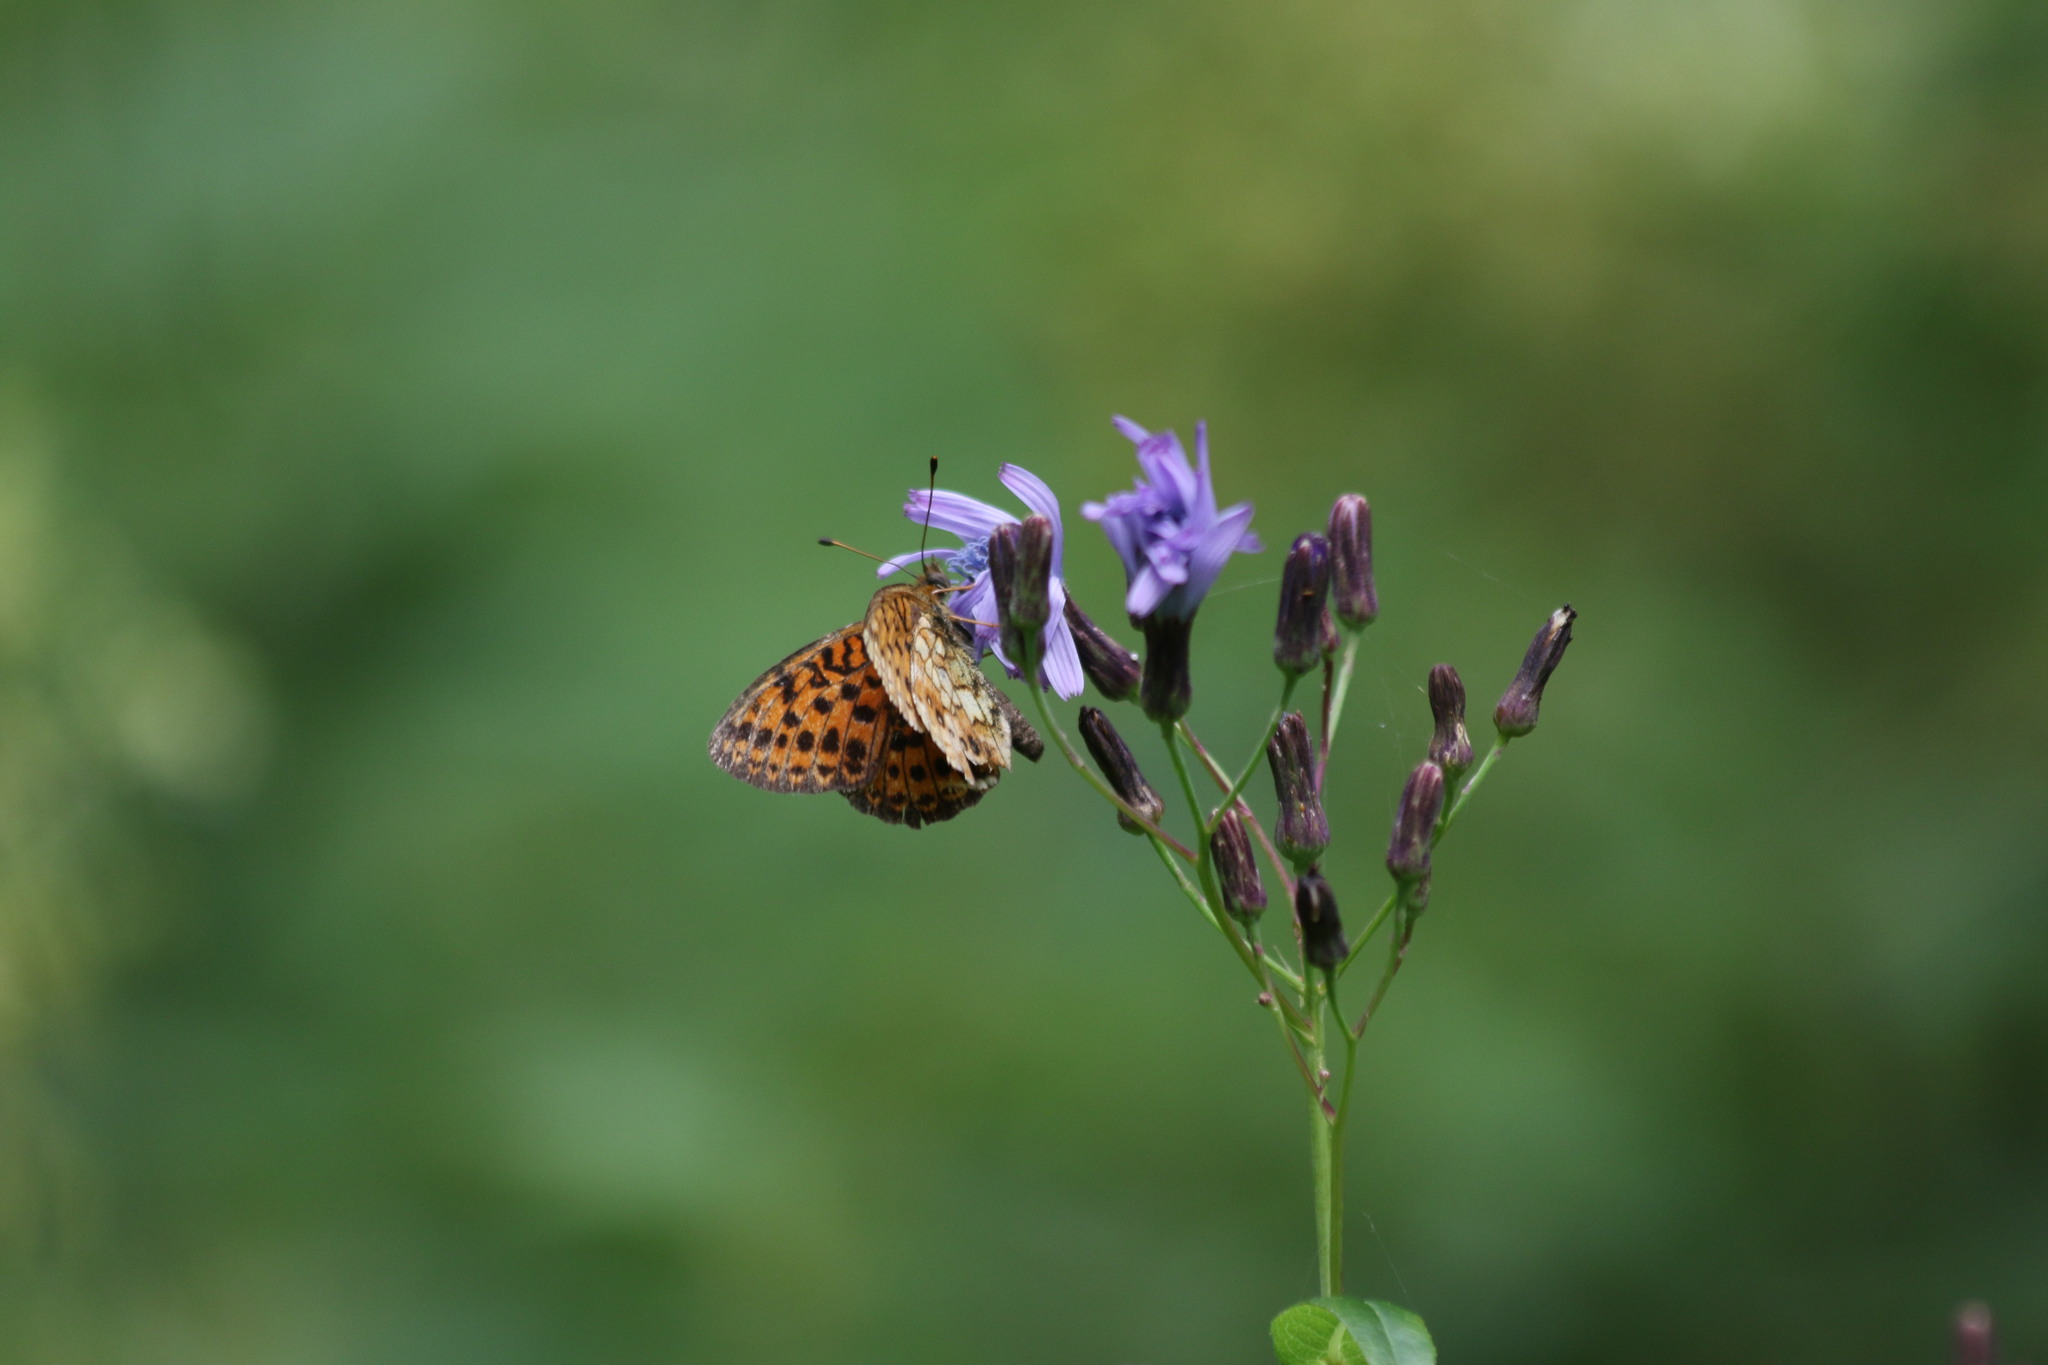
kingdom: Animalia
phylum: Arthropoda
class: Insecta
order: Lepidoptera
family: Nymphalidae
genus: Brenthis
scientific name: Brenthis ino
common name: Lesser marbled fritillary
